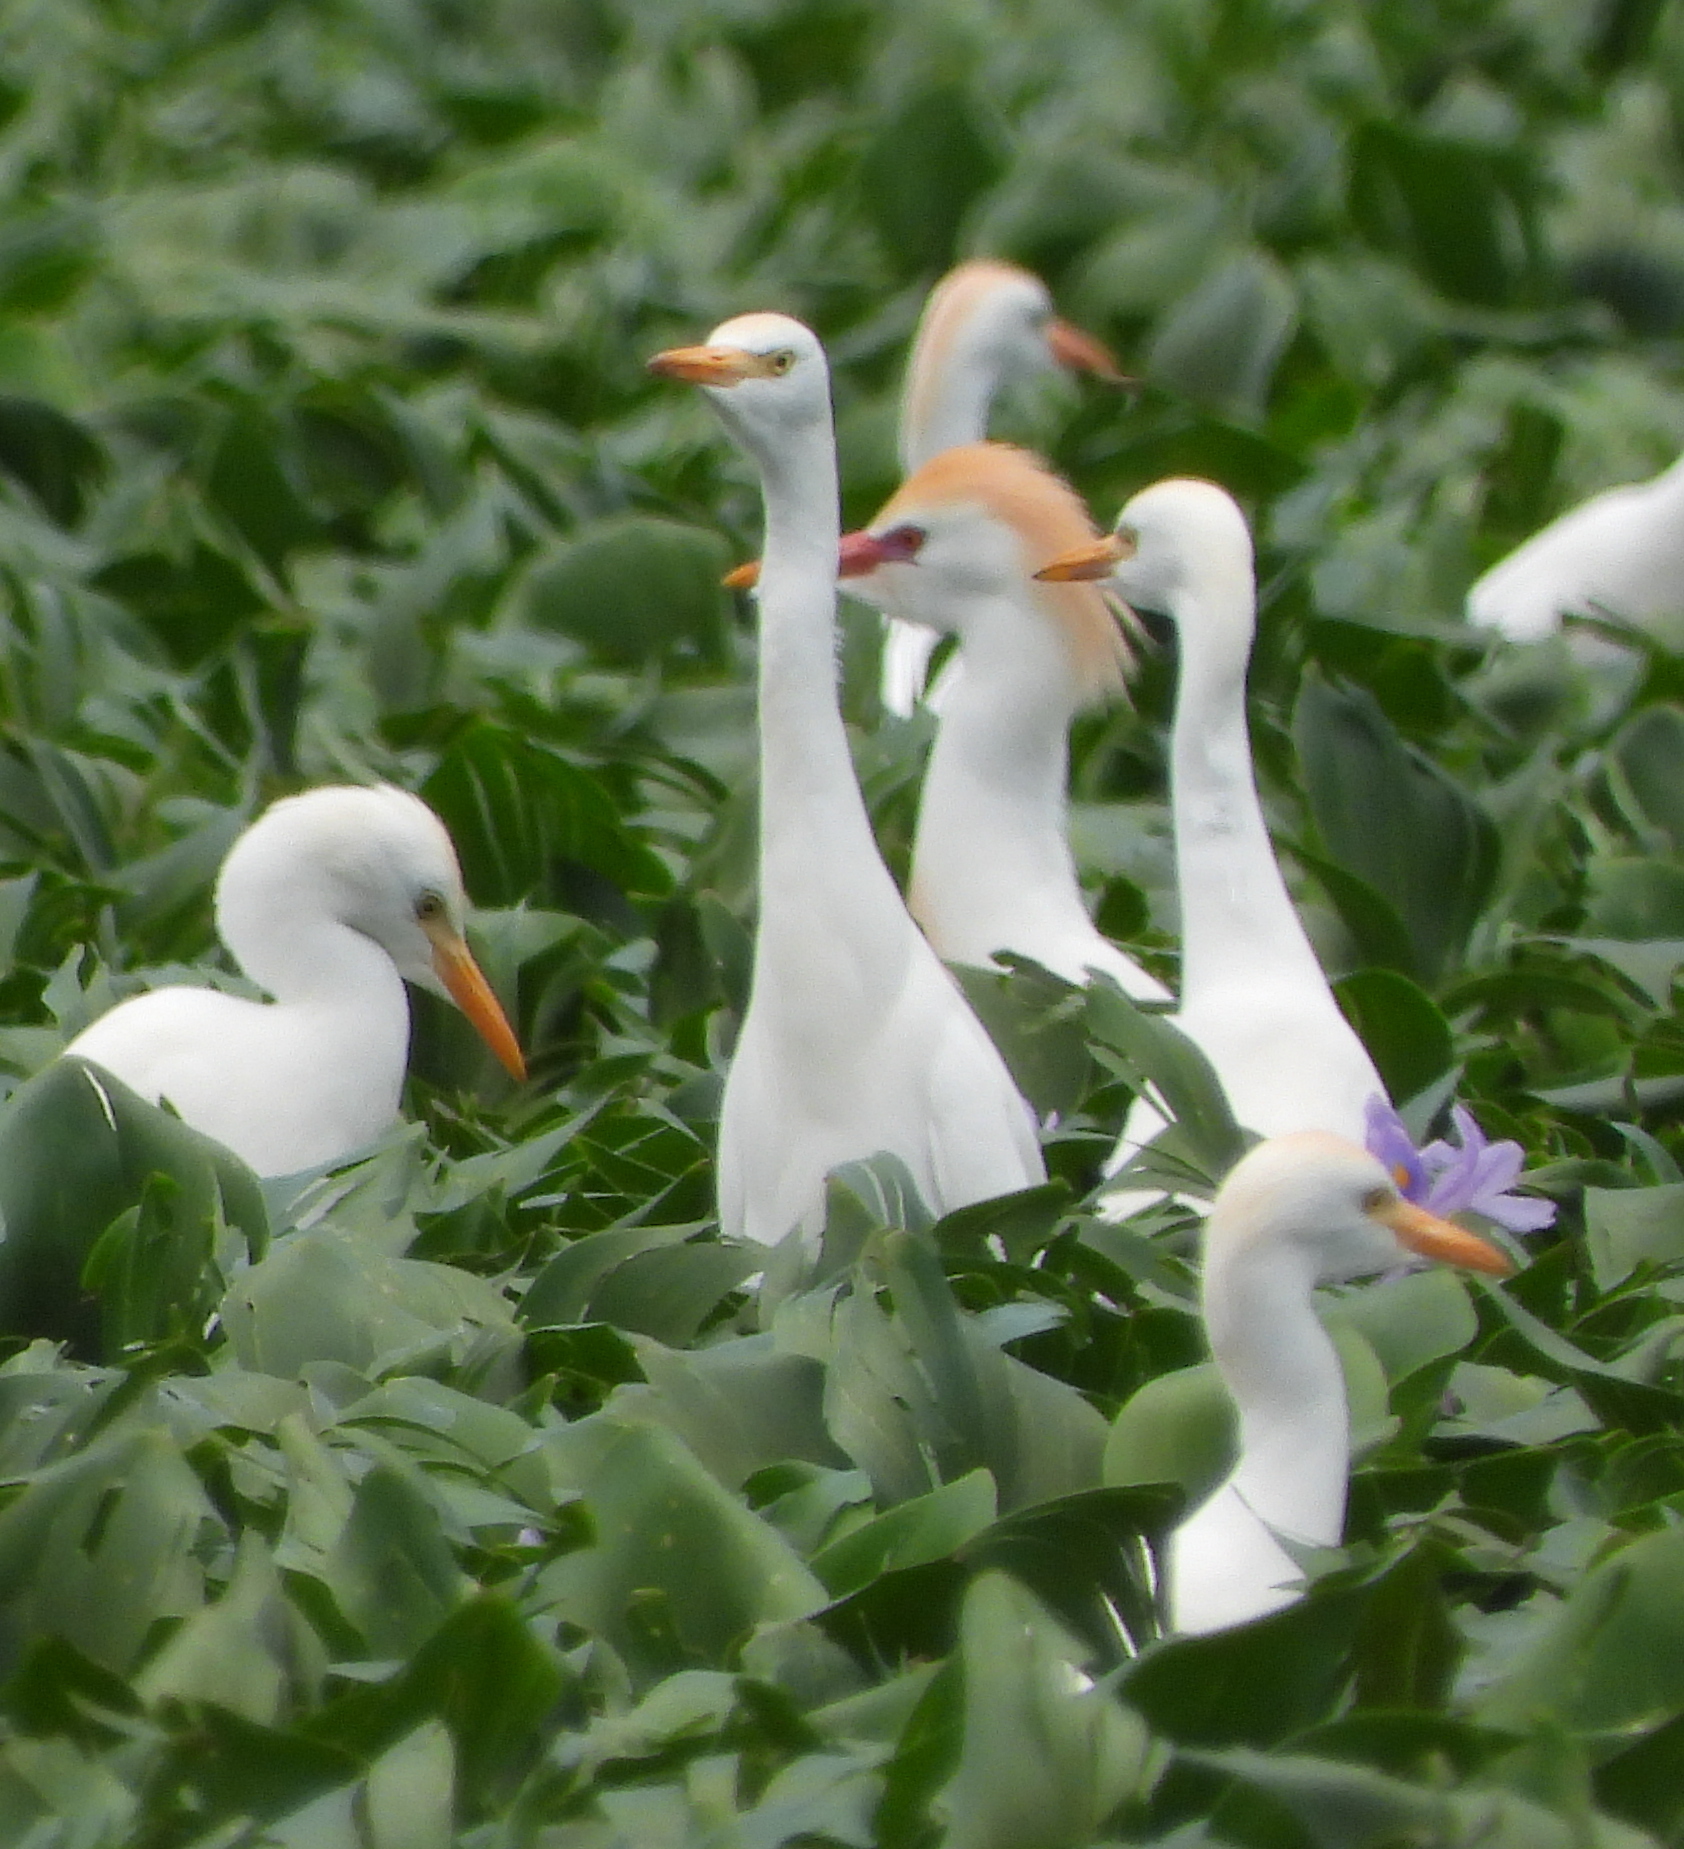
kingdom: Animalia
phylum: Chordata
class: Aves
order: Pelecaniformes
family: Ardeidae
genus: Bubulcus
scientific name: Bubulcus ibis
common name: Cattle egret
